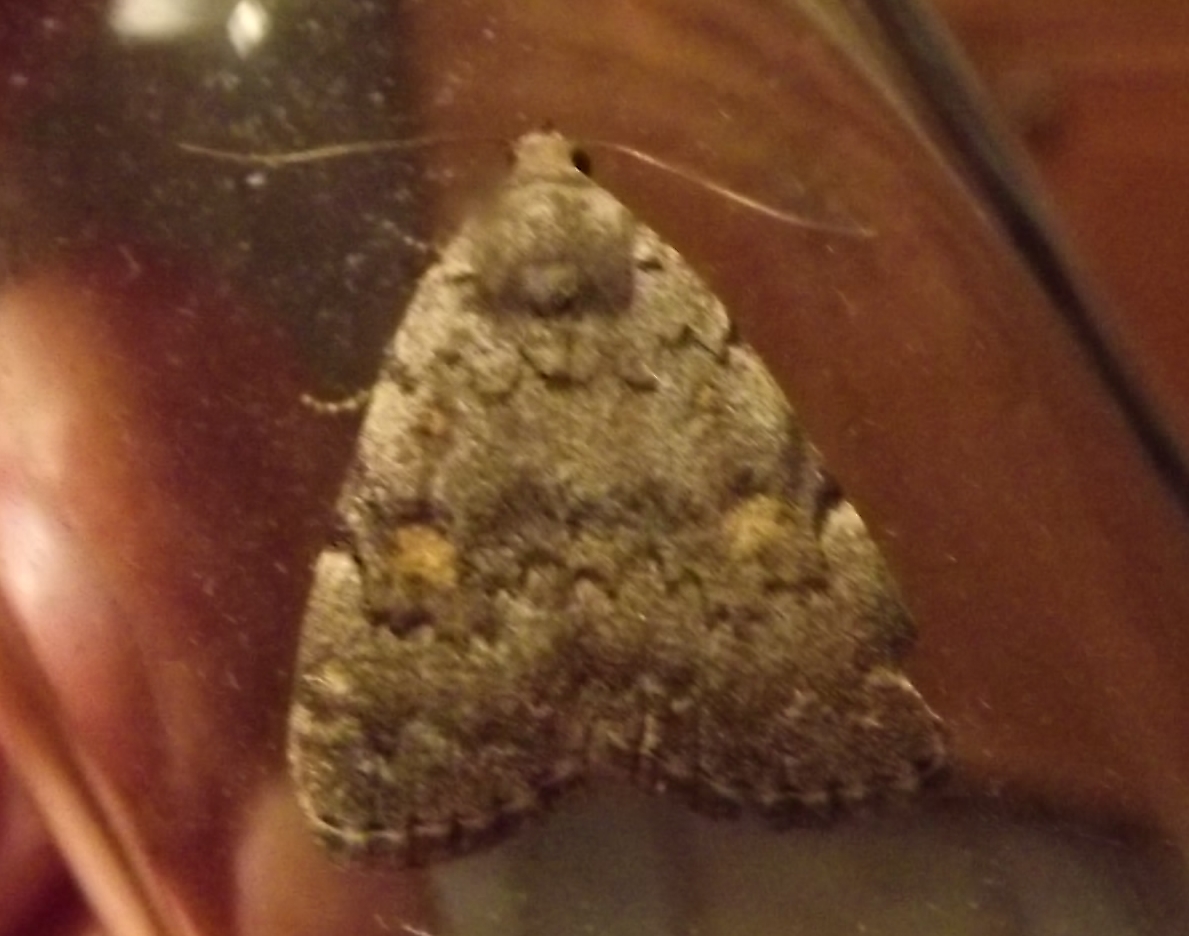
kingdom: Animalia
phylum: Arthropoda
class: Insecta
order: Lepidoptera
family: Erebidae
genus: Idia
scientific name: Idia aemula
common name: Common idia moth
